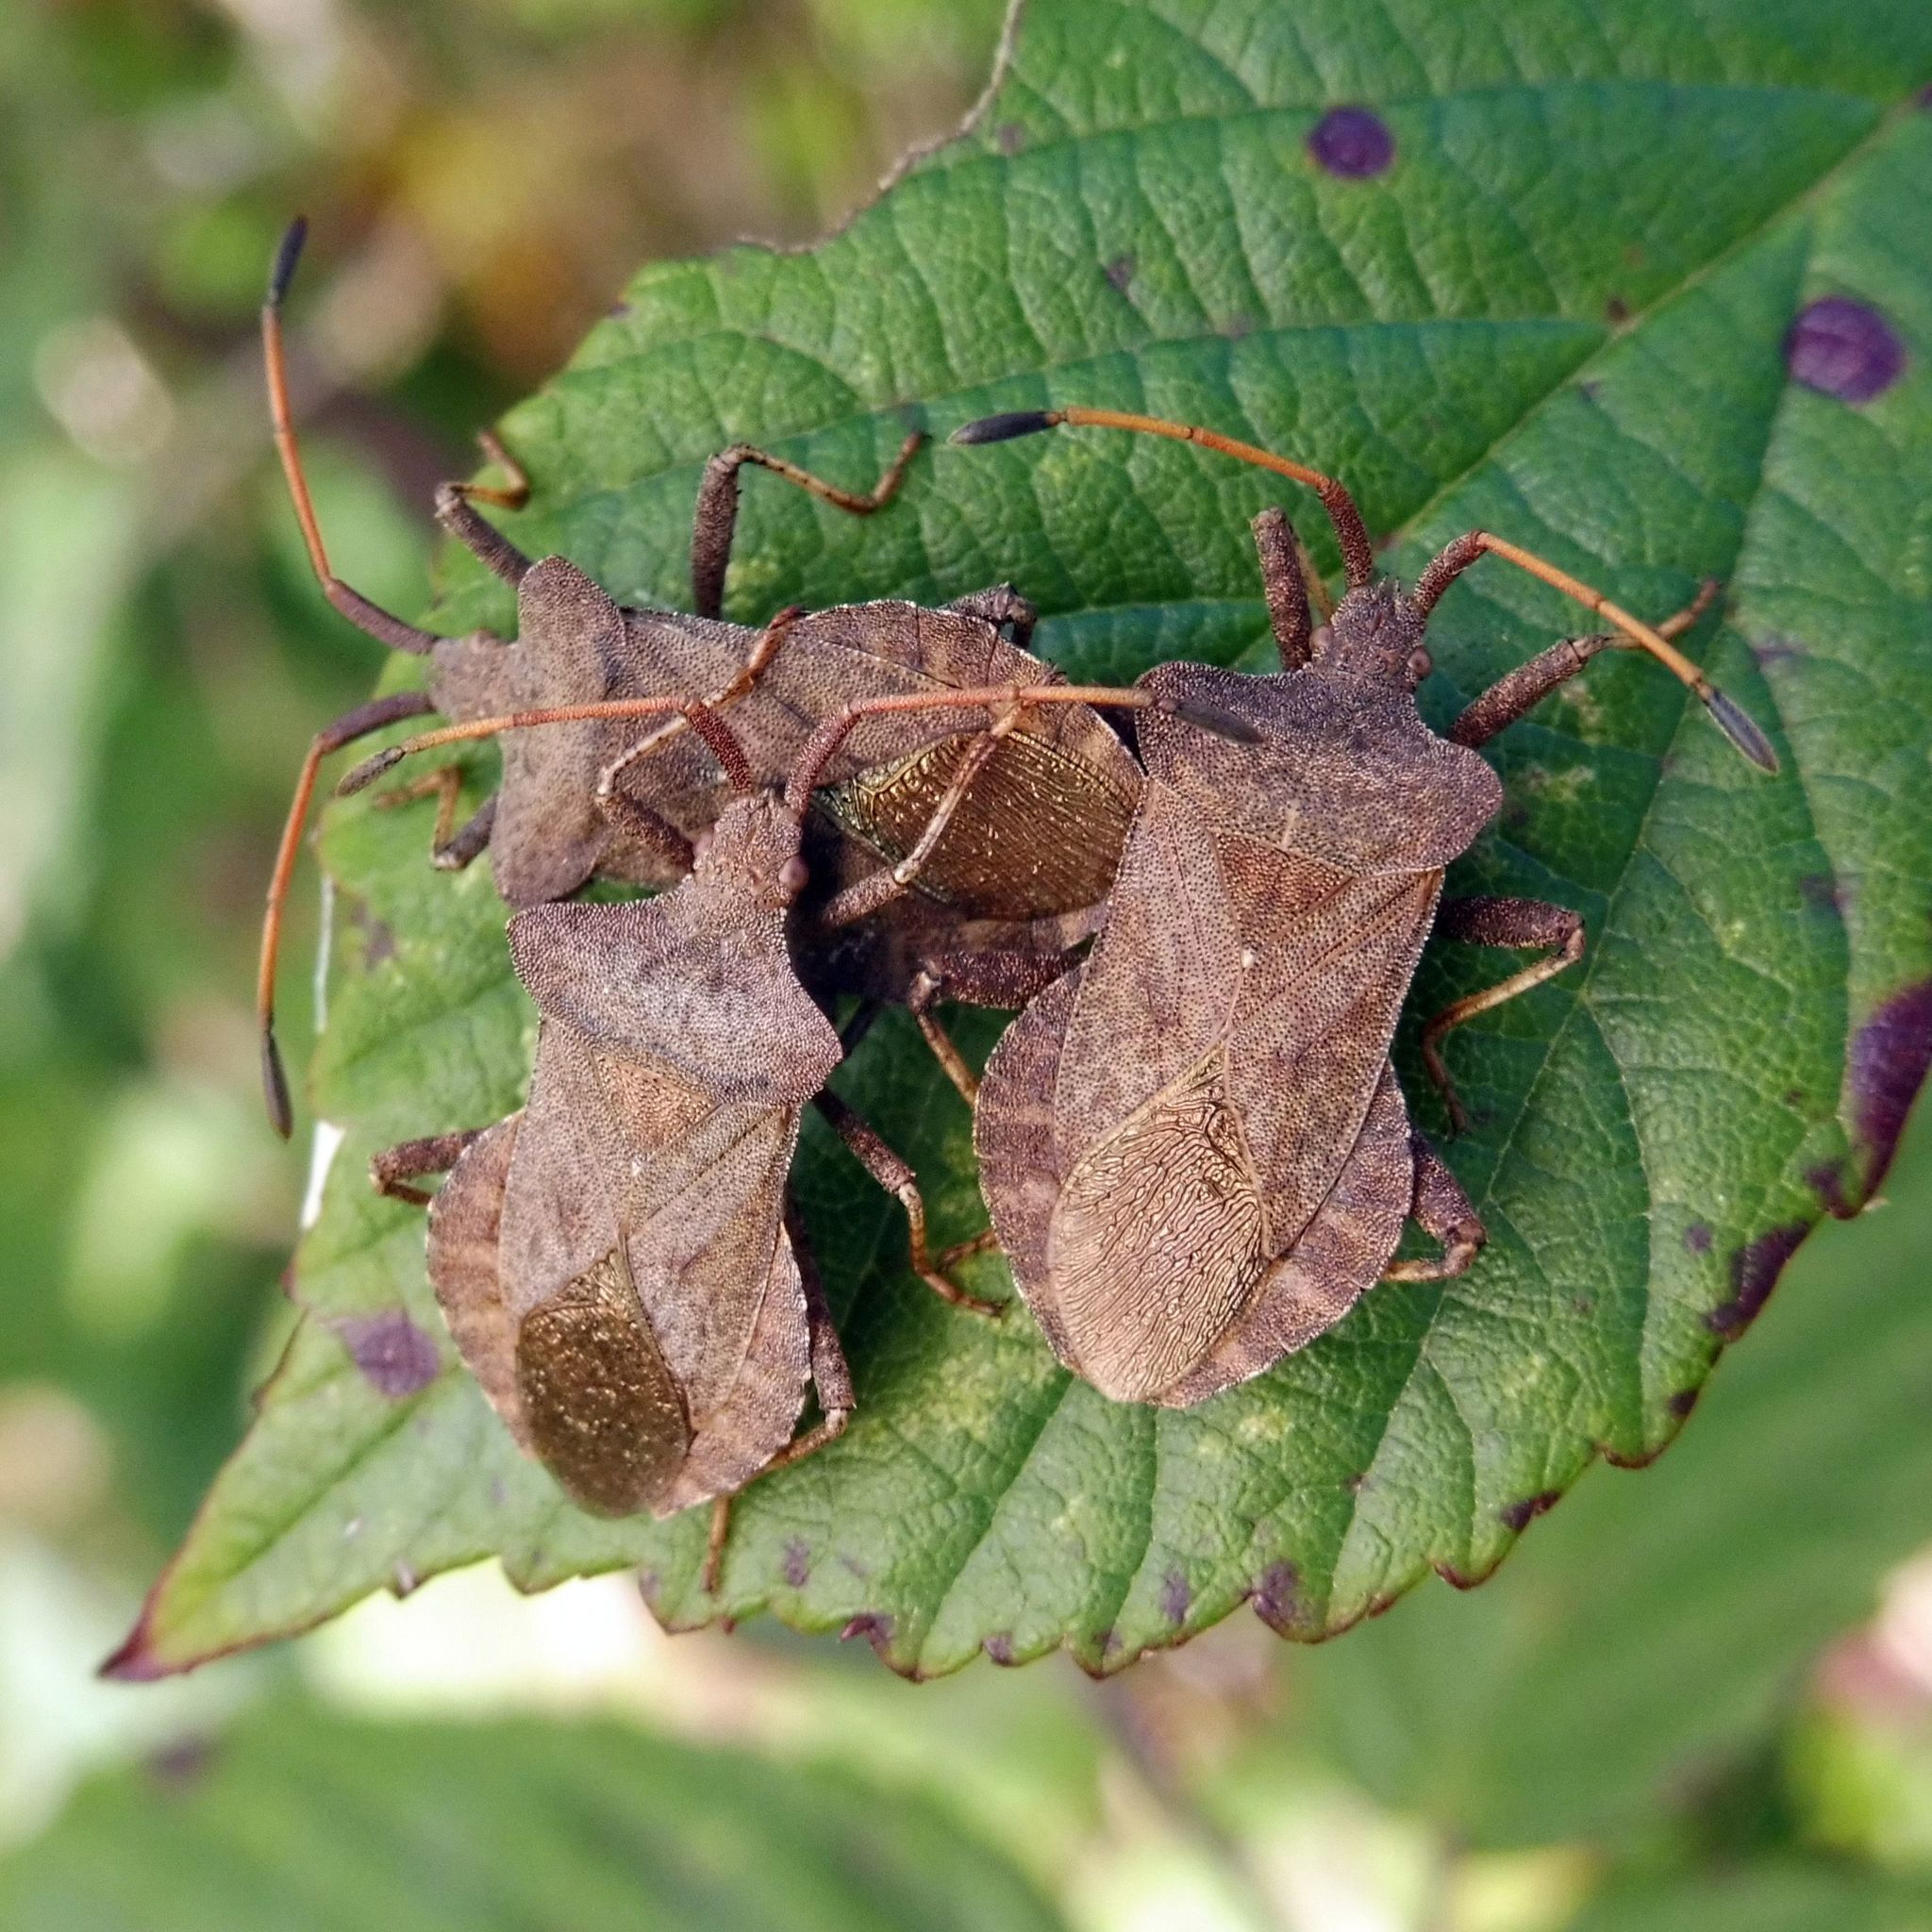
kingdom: Animalia
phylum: Arthropoda
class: Insecta
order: Hemiptera
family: Coreidae
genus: Coreus
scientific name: Coreus marginatus
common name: Dock bug
